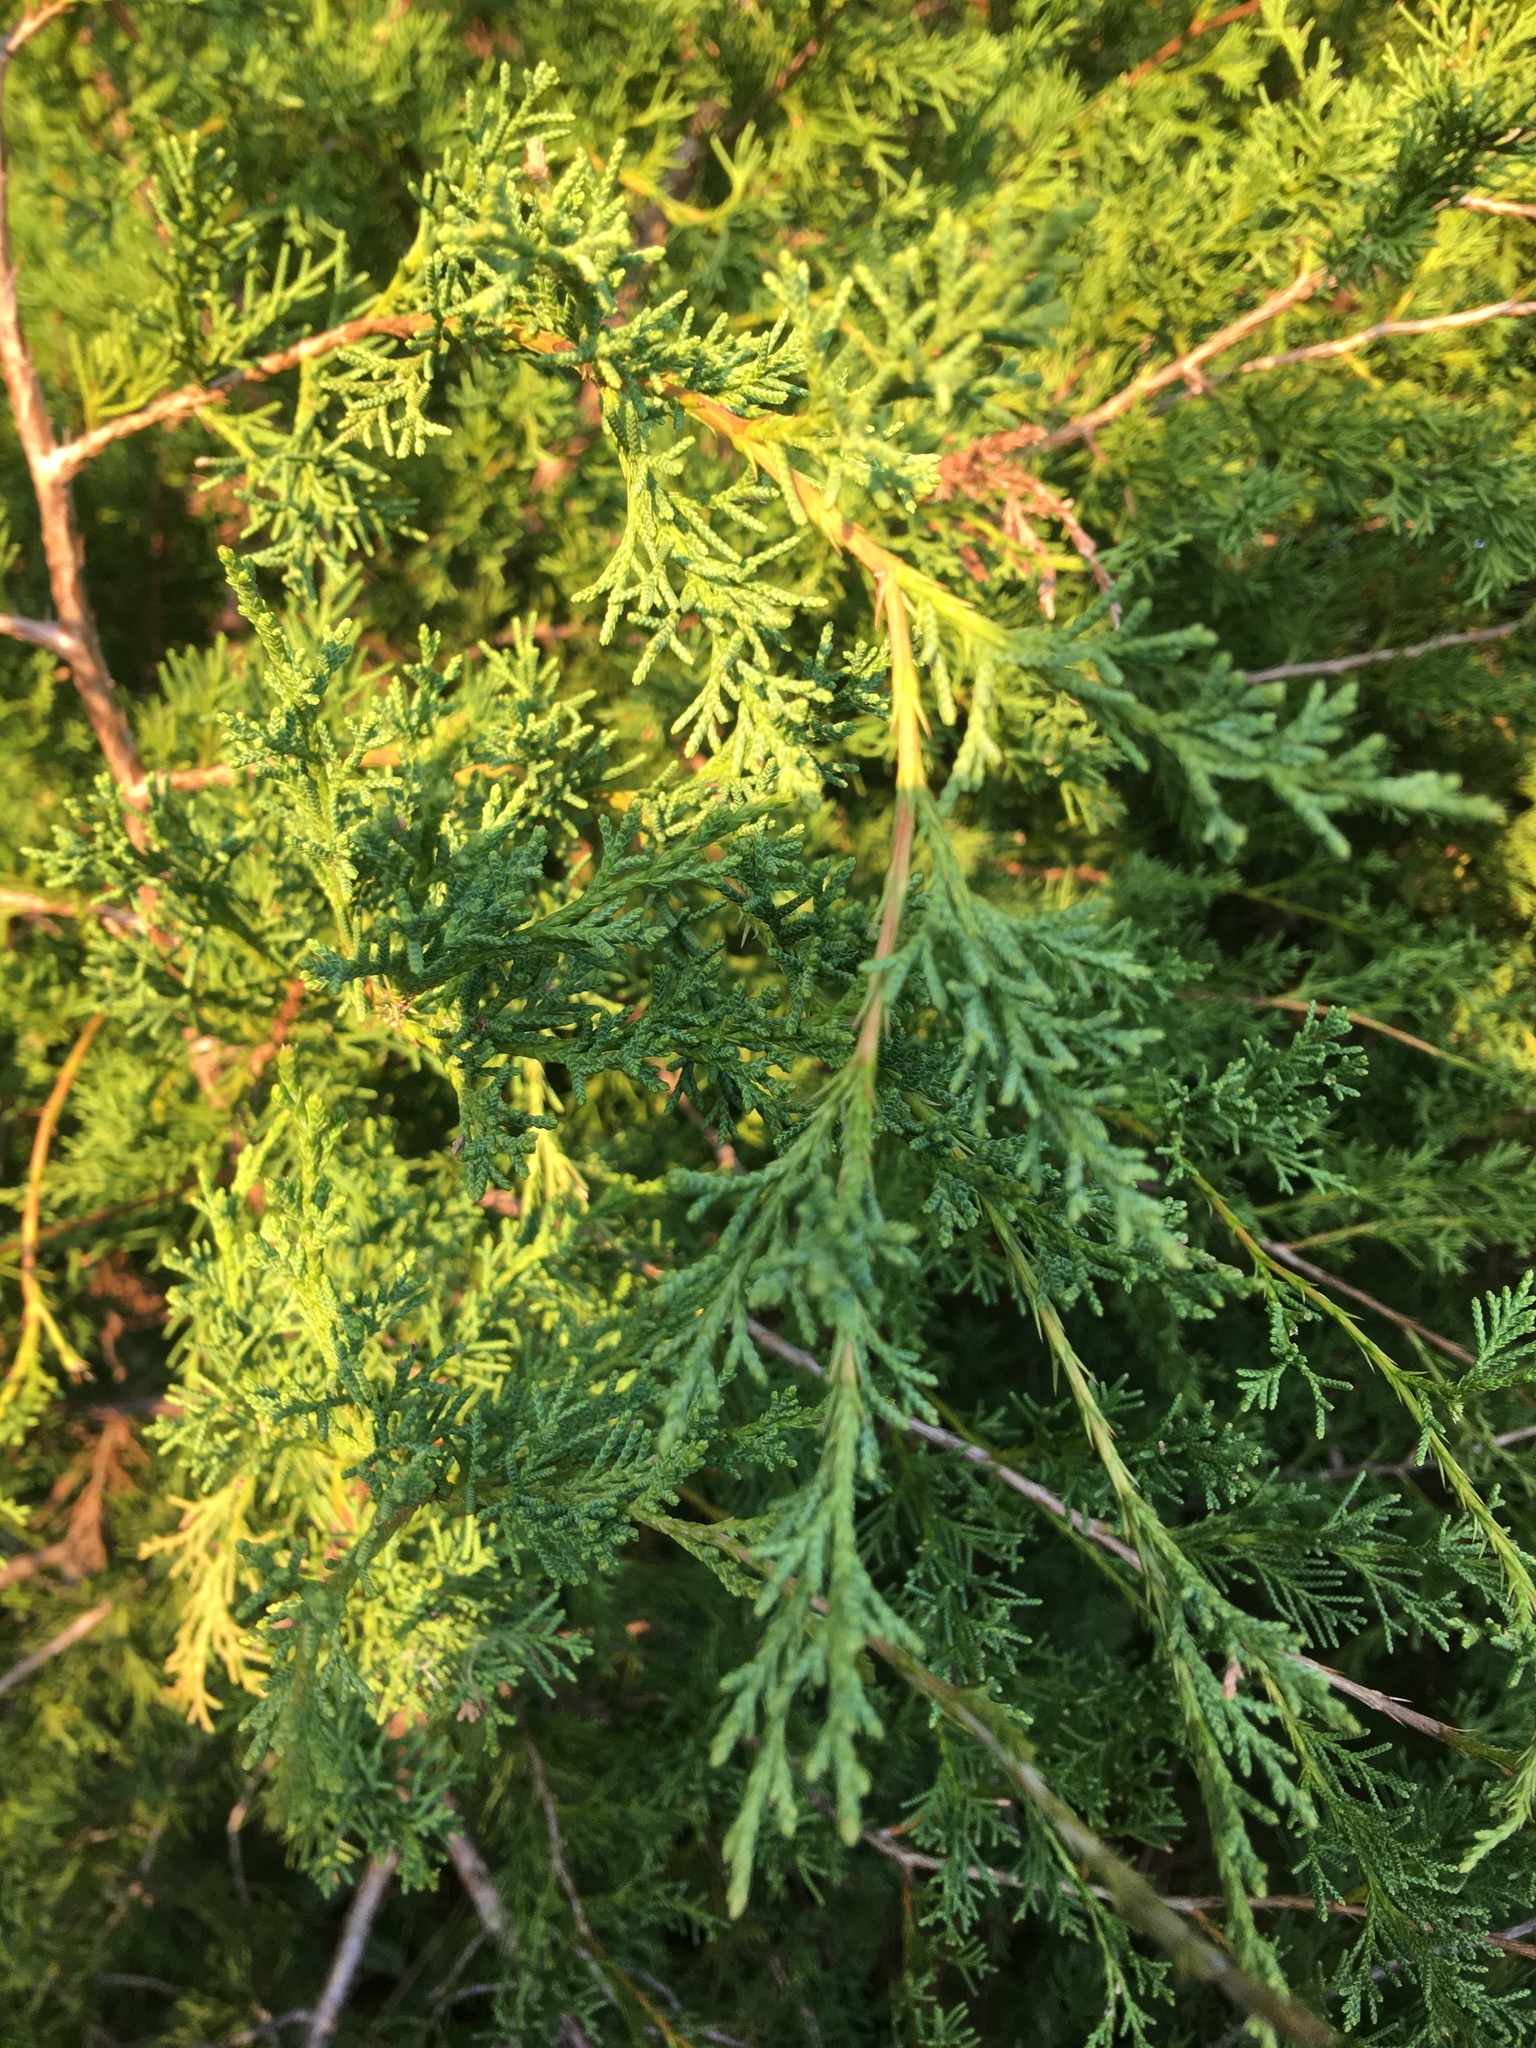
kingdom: Plantae
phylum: Tracheophyta
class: Pinopsida
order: Pinales
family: Cupressaceae
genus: Juniperus
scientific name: Juniperus virginiana
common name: Red juniper
